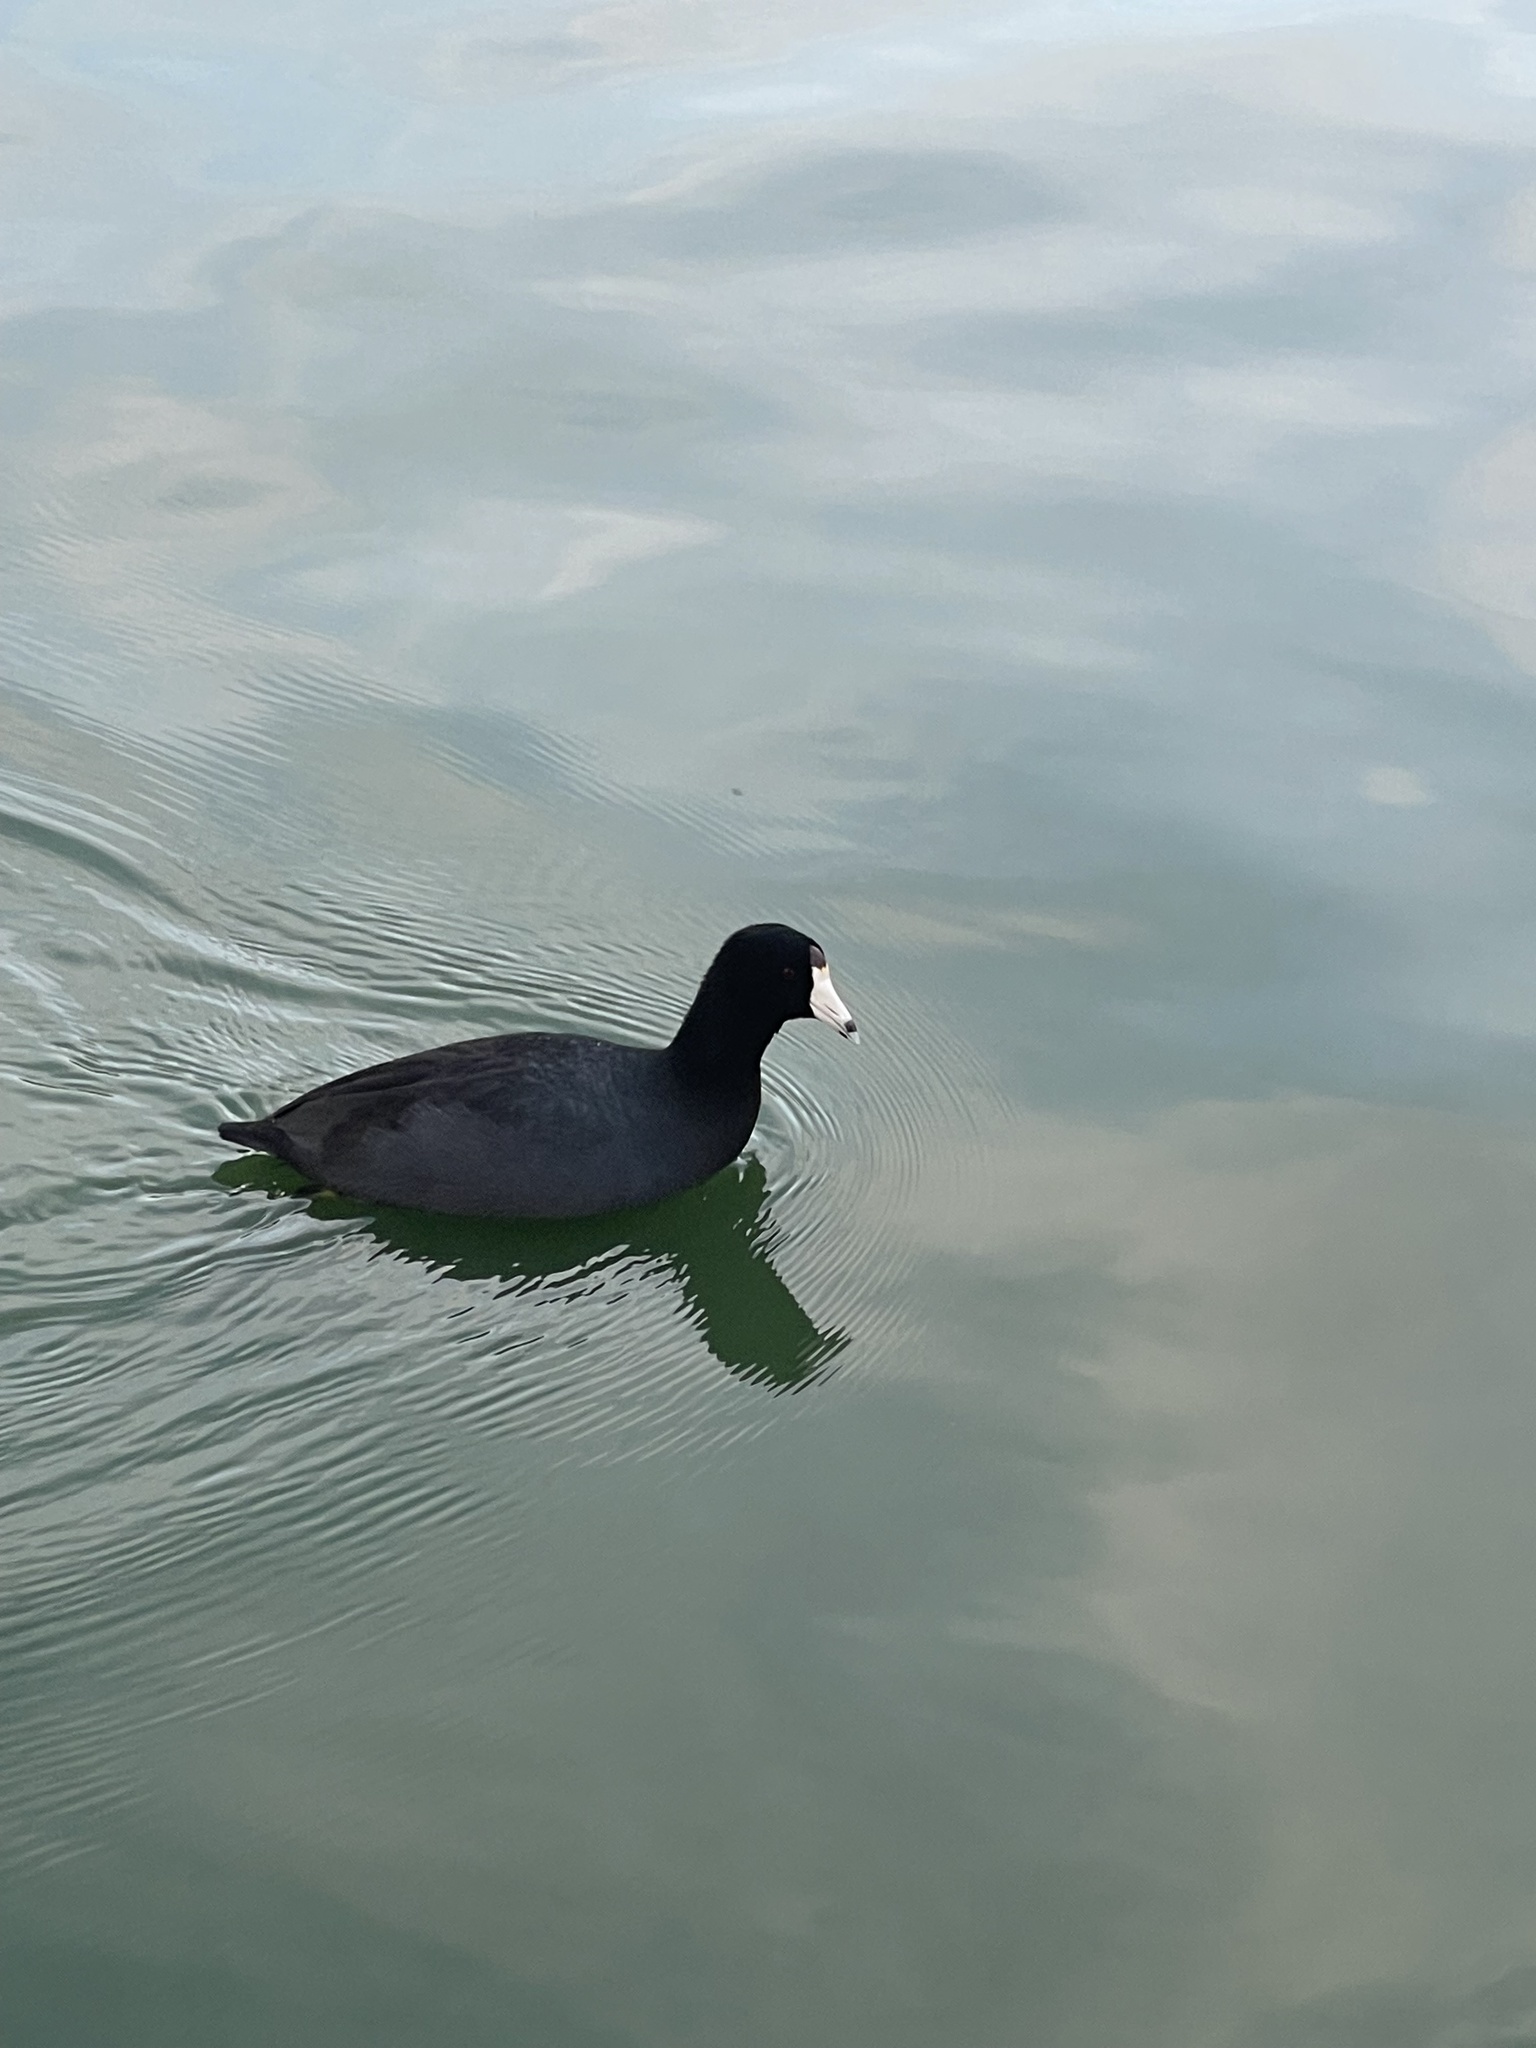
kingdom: Animalia
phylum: Chordata
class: Aves
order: Gruiformes
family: Rallidae
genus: Fulica
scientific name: Fulica americana
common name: American coot
